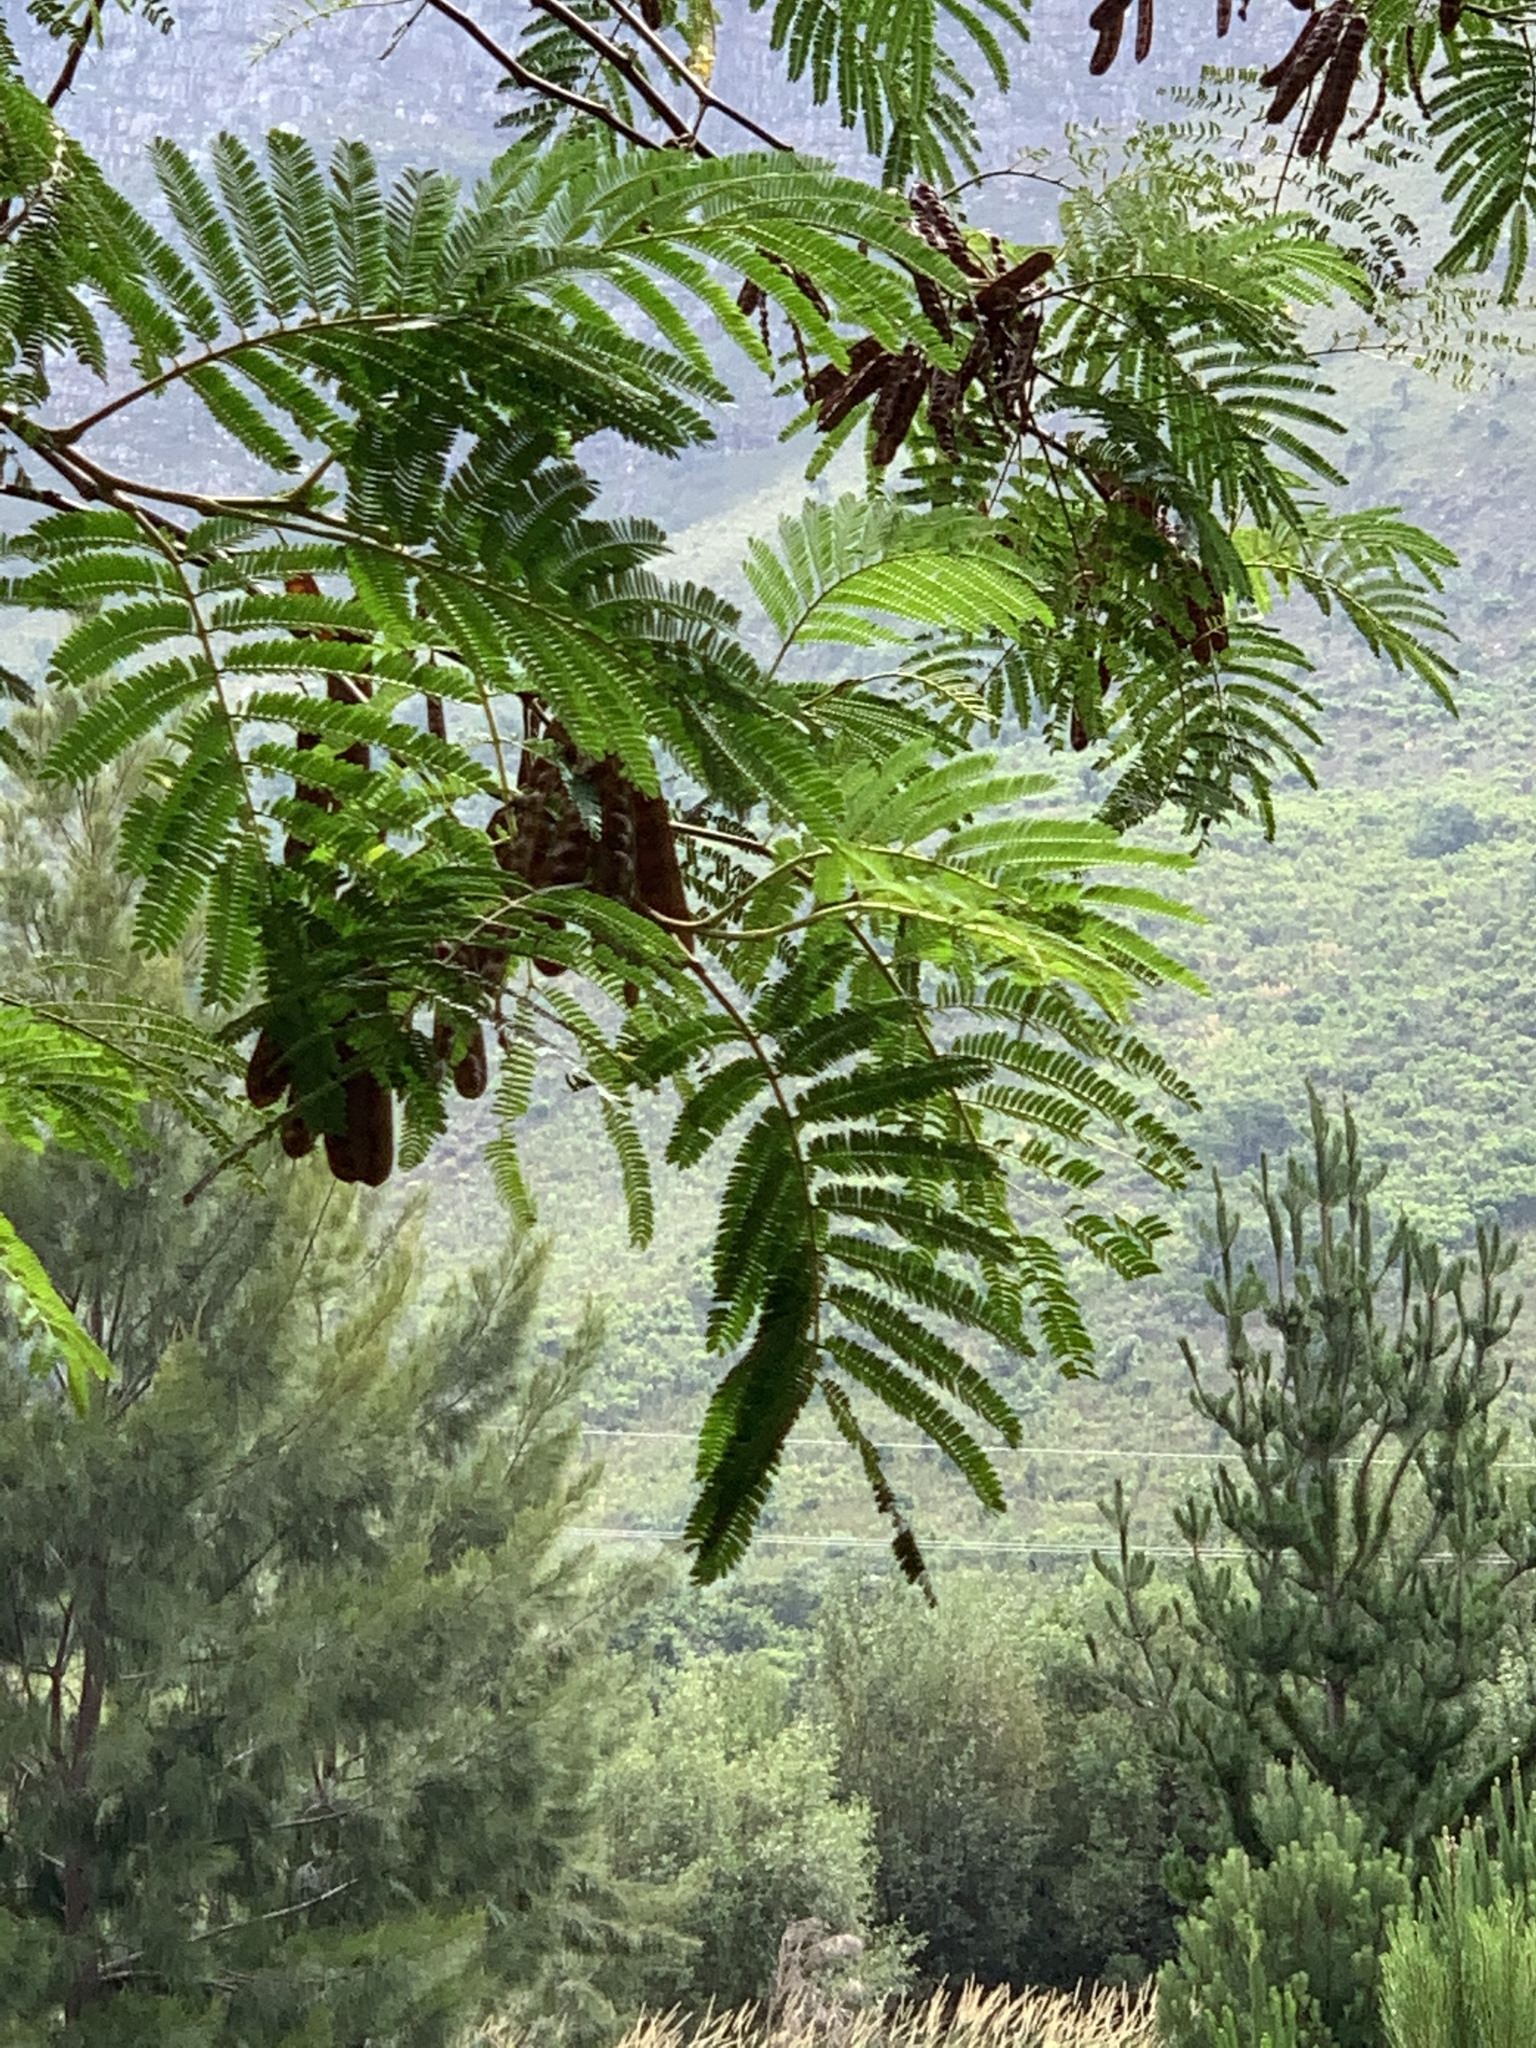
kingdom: Plantae
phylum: Tracheophyta
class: Magnoliopsida
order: Fabales
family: Fabaceae
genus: Paraserianthes
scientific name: Paraserianthes lophantha
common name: Plume albizia
